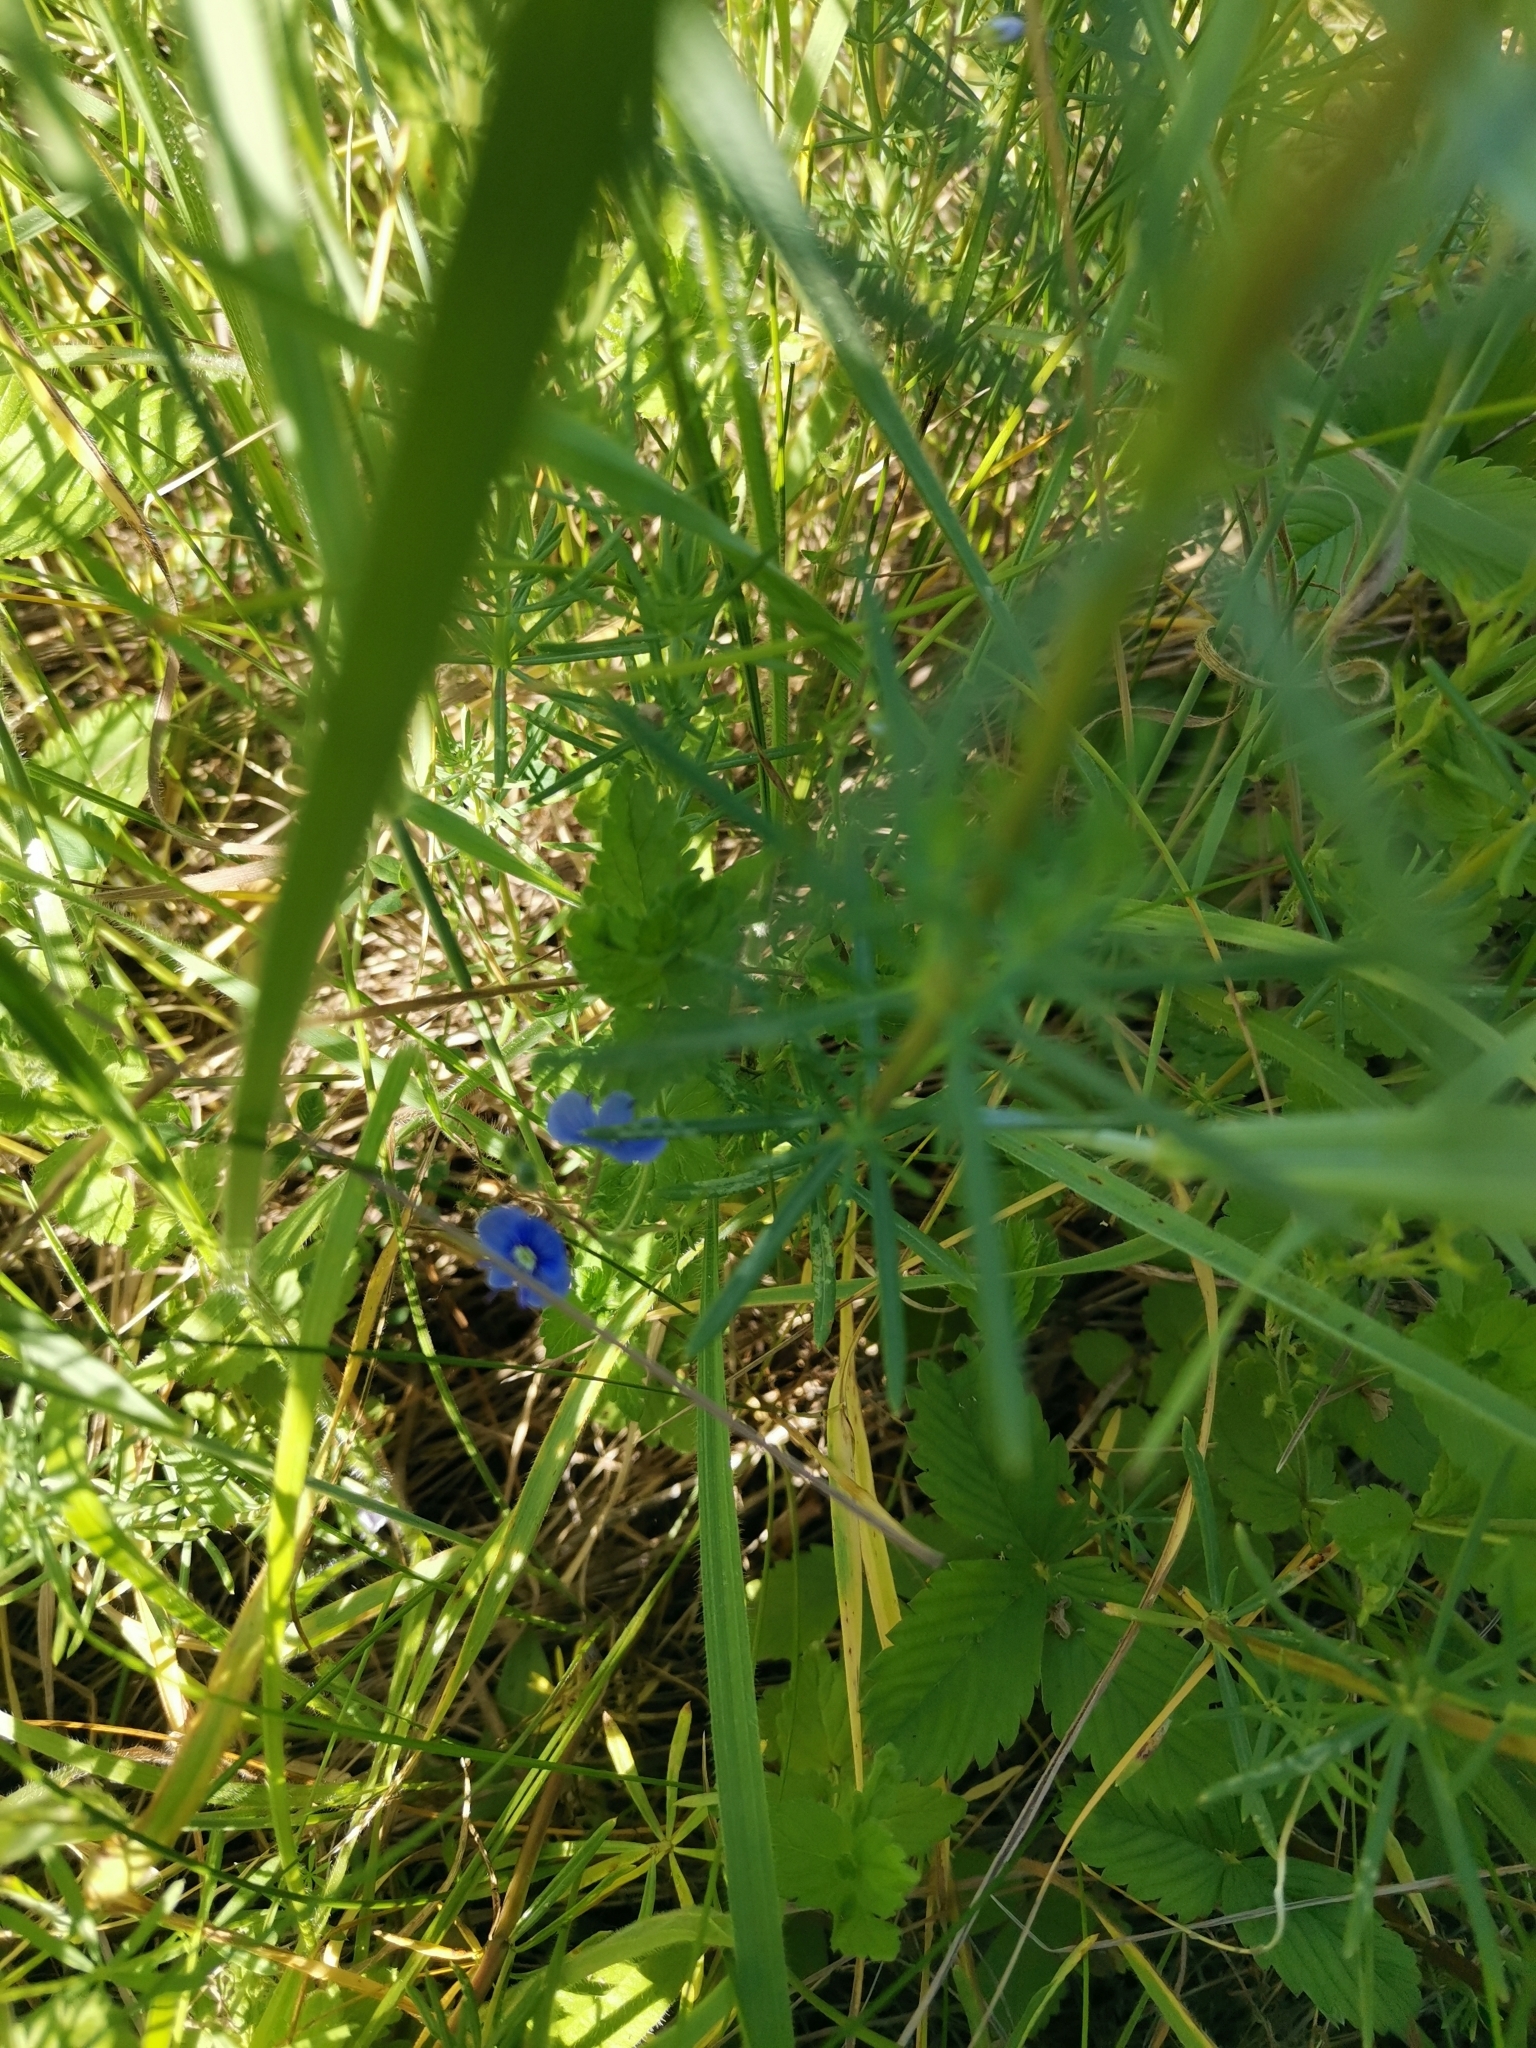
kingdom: Plantae
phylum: Tracheophyta
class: Magnoliopsida
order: Lamiales
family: Plantaginaceae
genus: Veronica
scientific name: Veronica chamaedrys
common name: Germander speedwell
